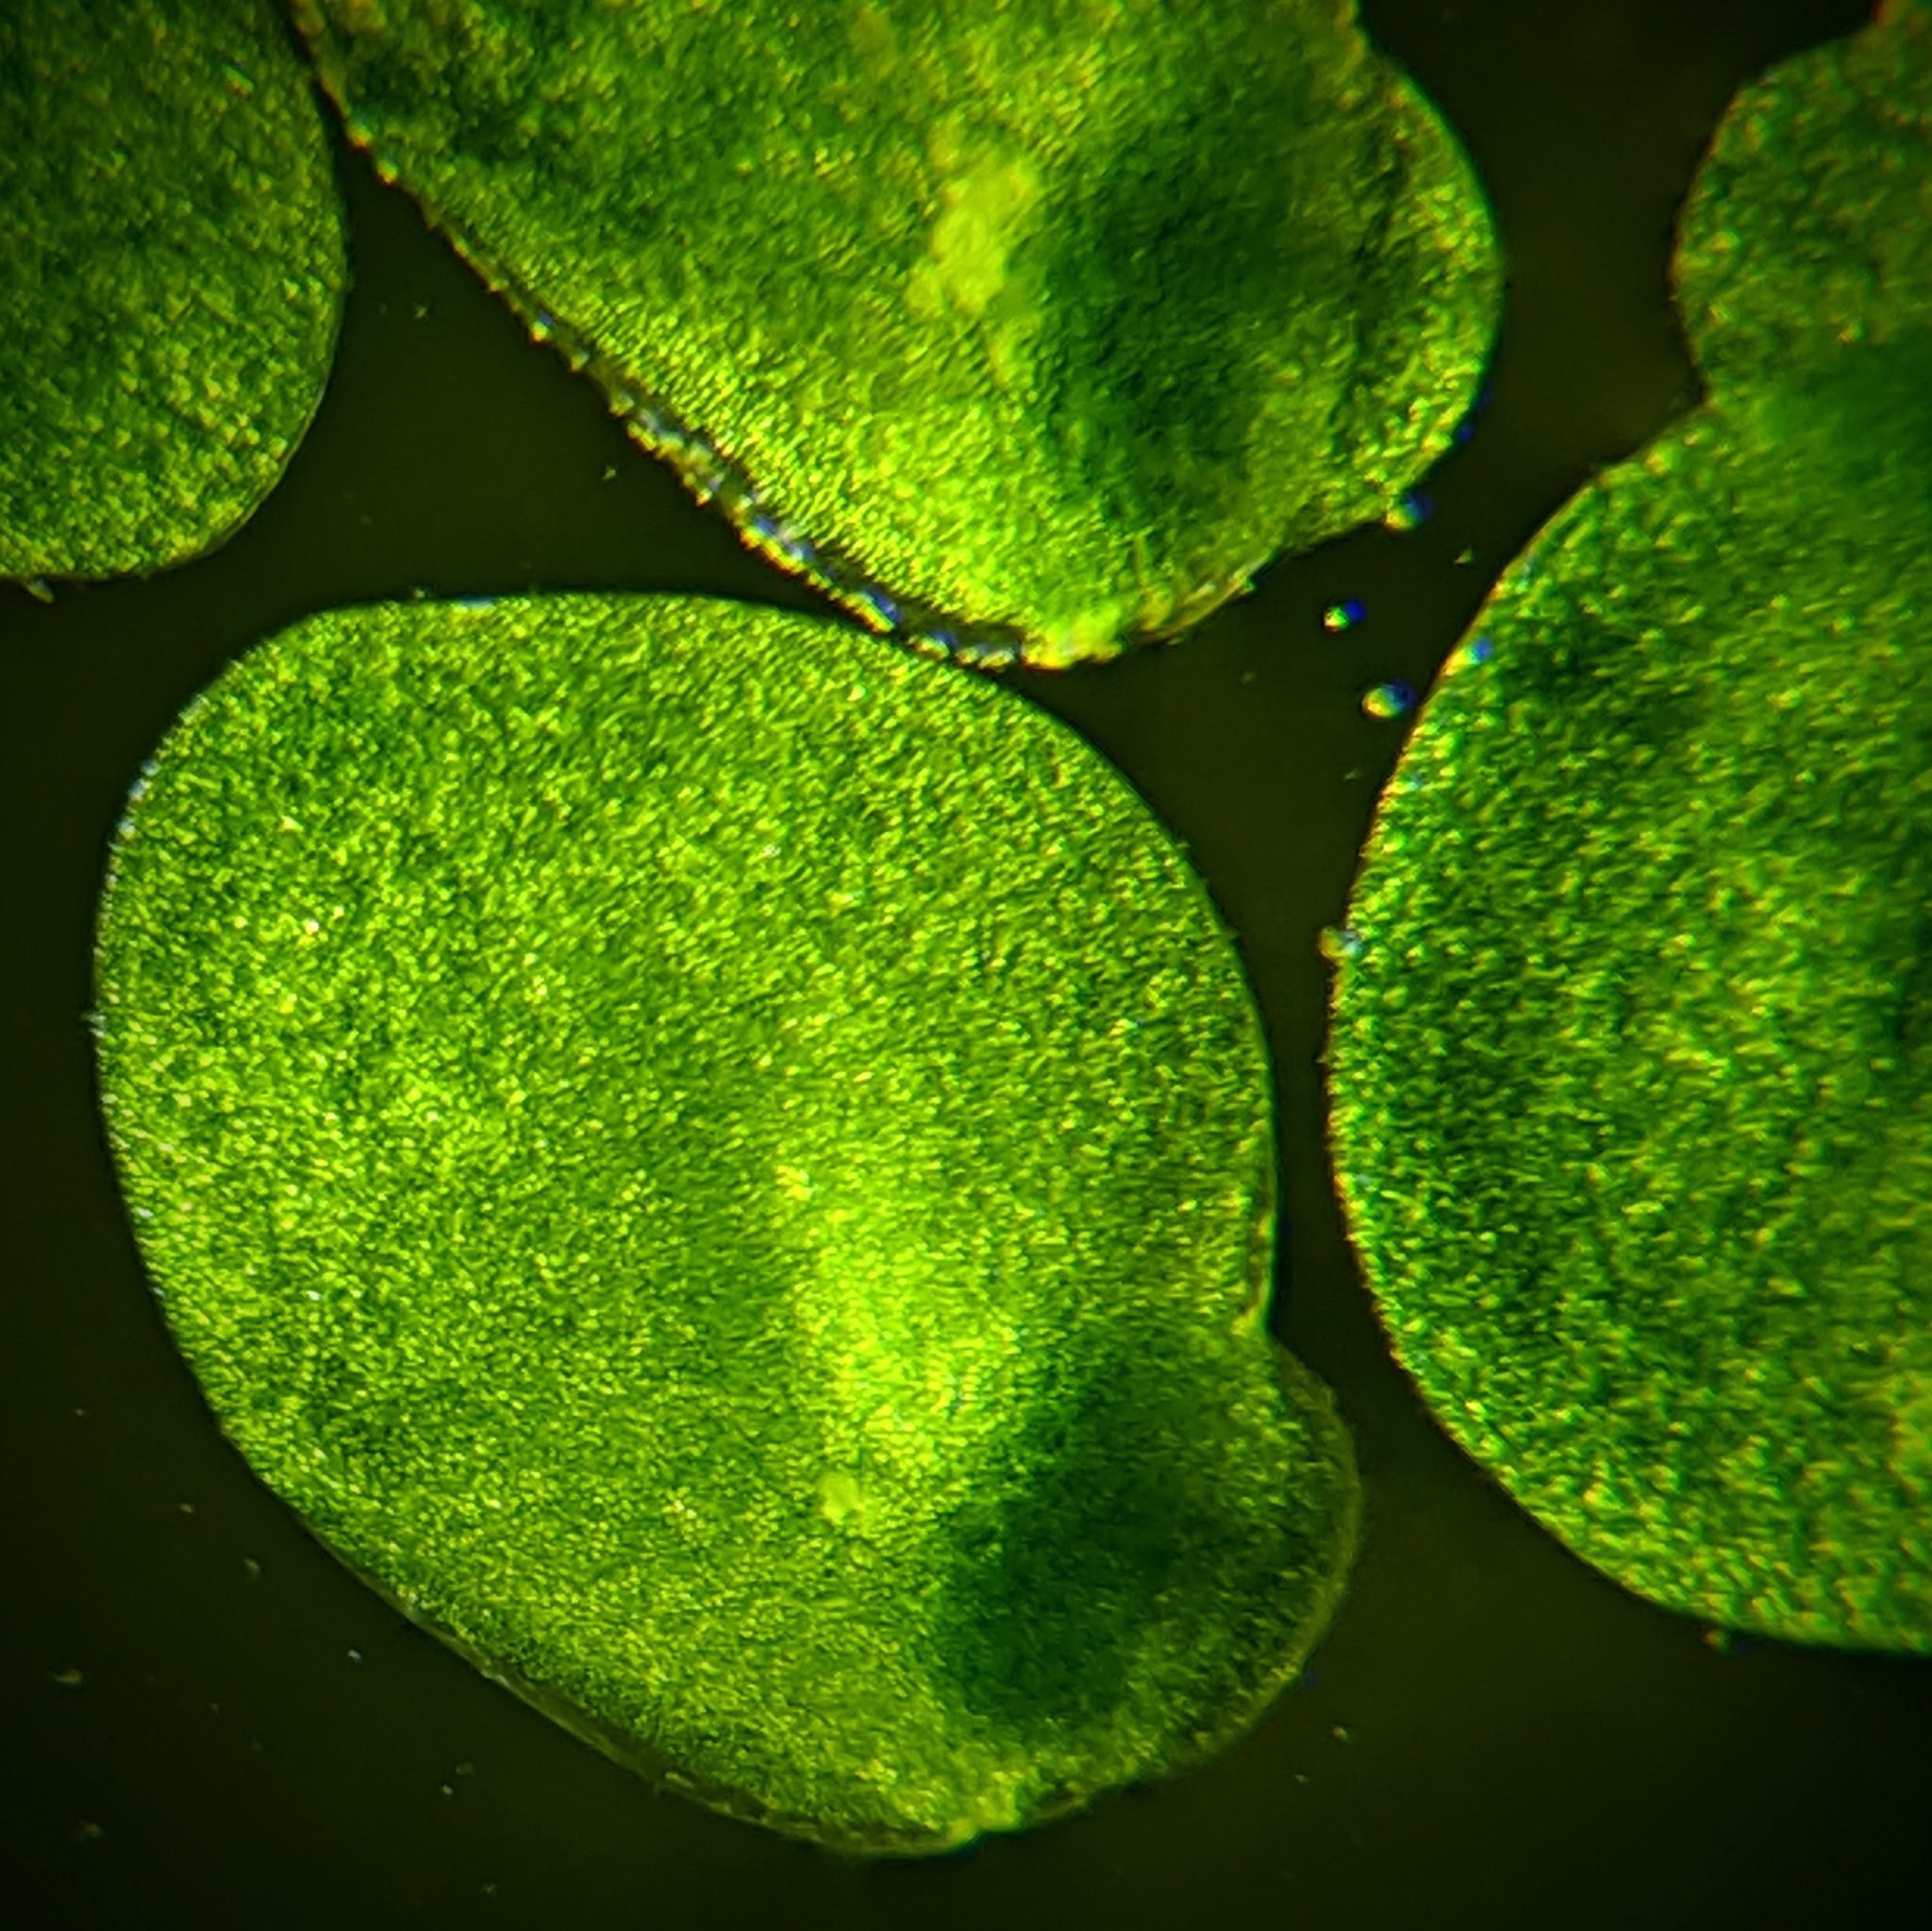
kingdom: Plantae
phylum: Tracheophyta
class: Liliopsida
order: Alismatales
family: Araceae
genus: Lemna
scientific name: Lemna minor
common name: Common duckweed
